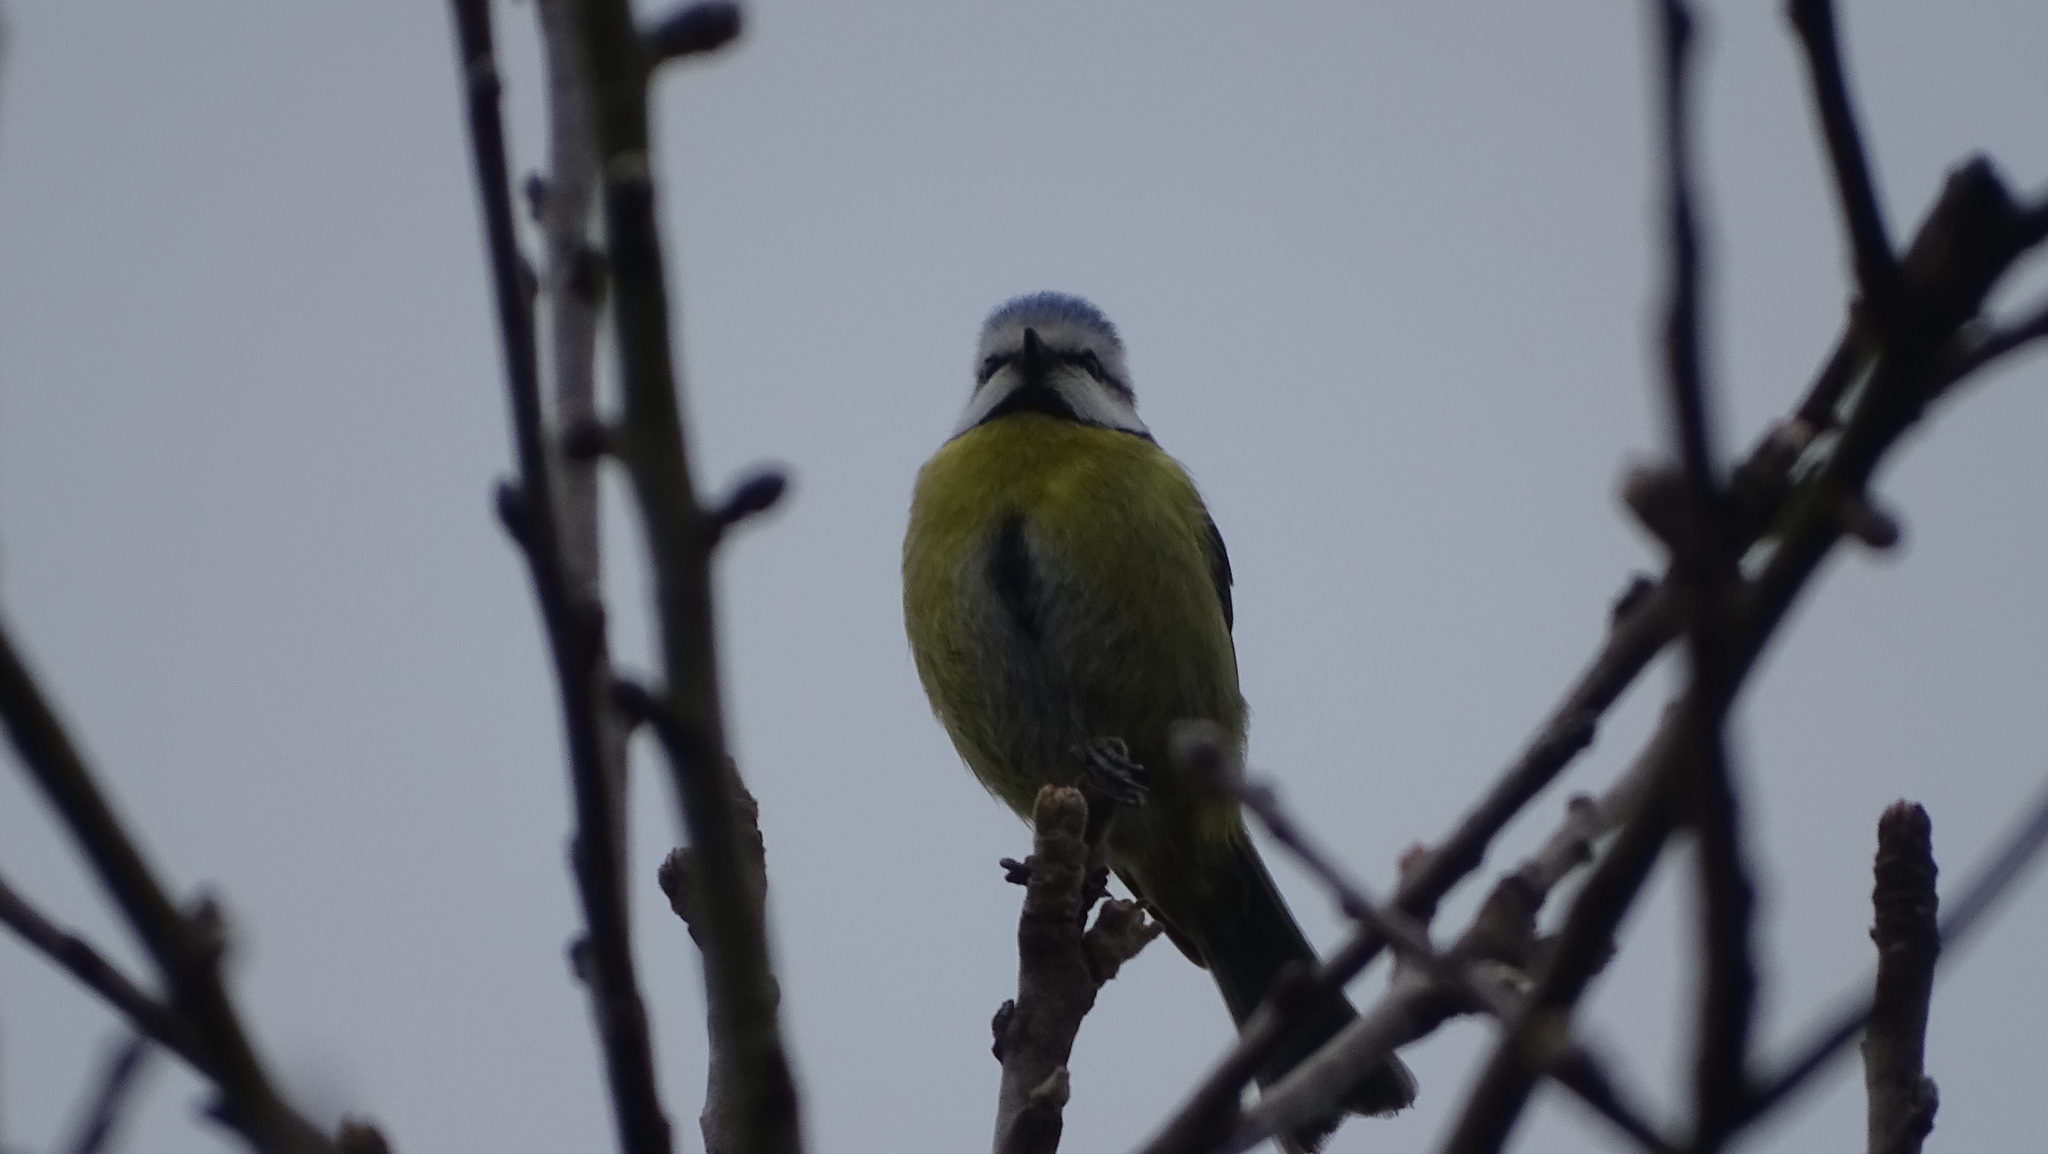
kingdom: Animalia
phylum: Chordata
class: Aves
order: Passeriformes
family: Paridae
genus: Cyanistes
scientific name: Cyanistes caeruleus
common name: Eurasian blue tit
